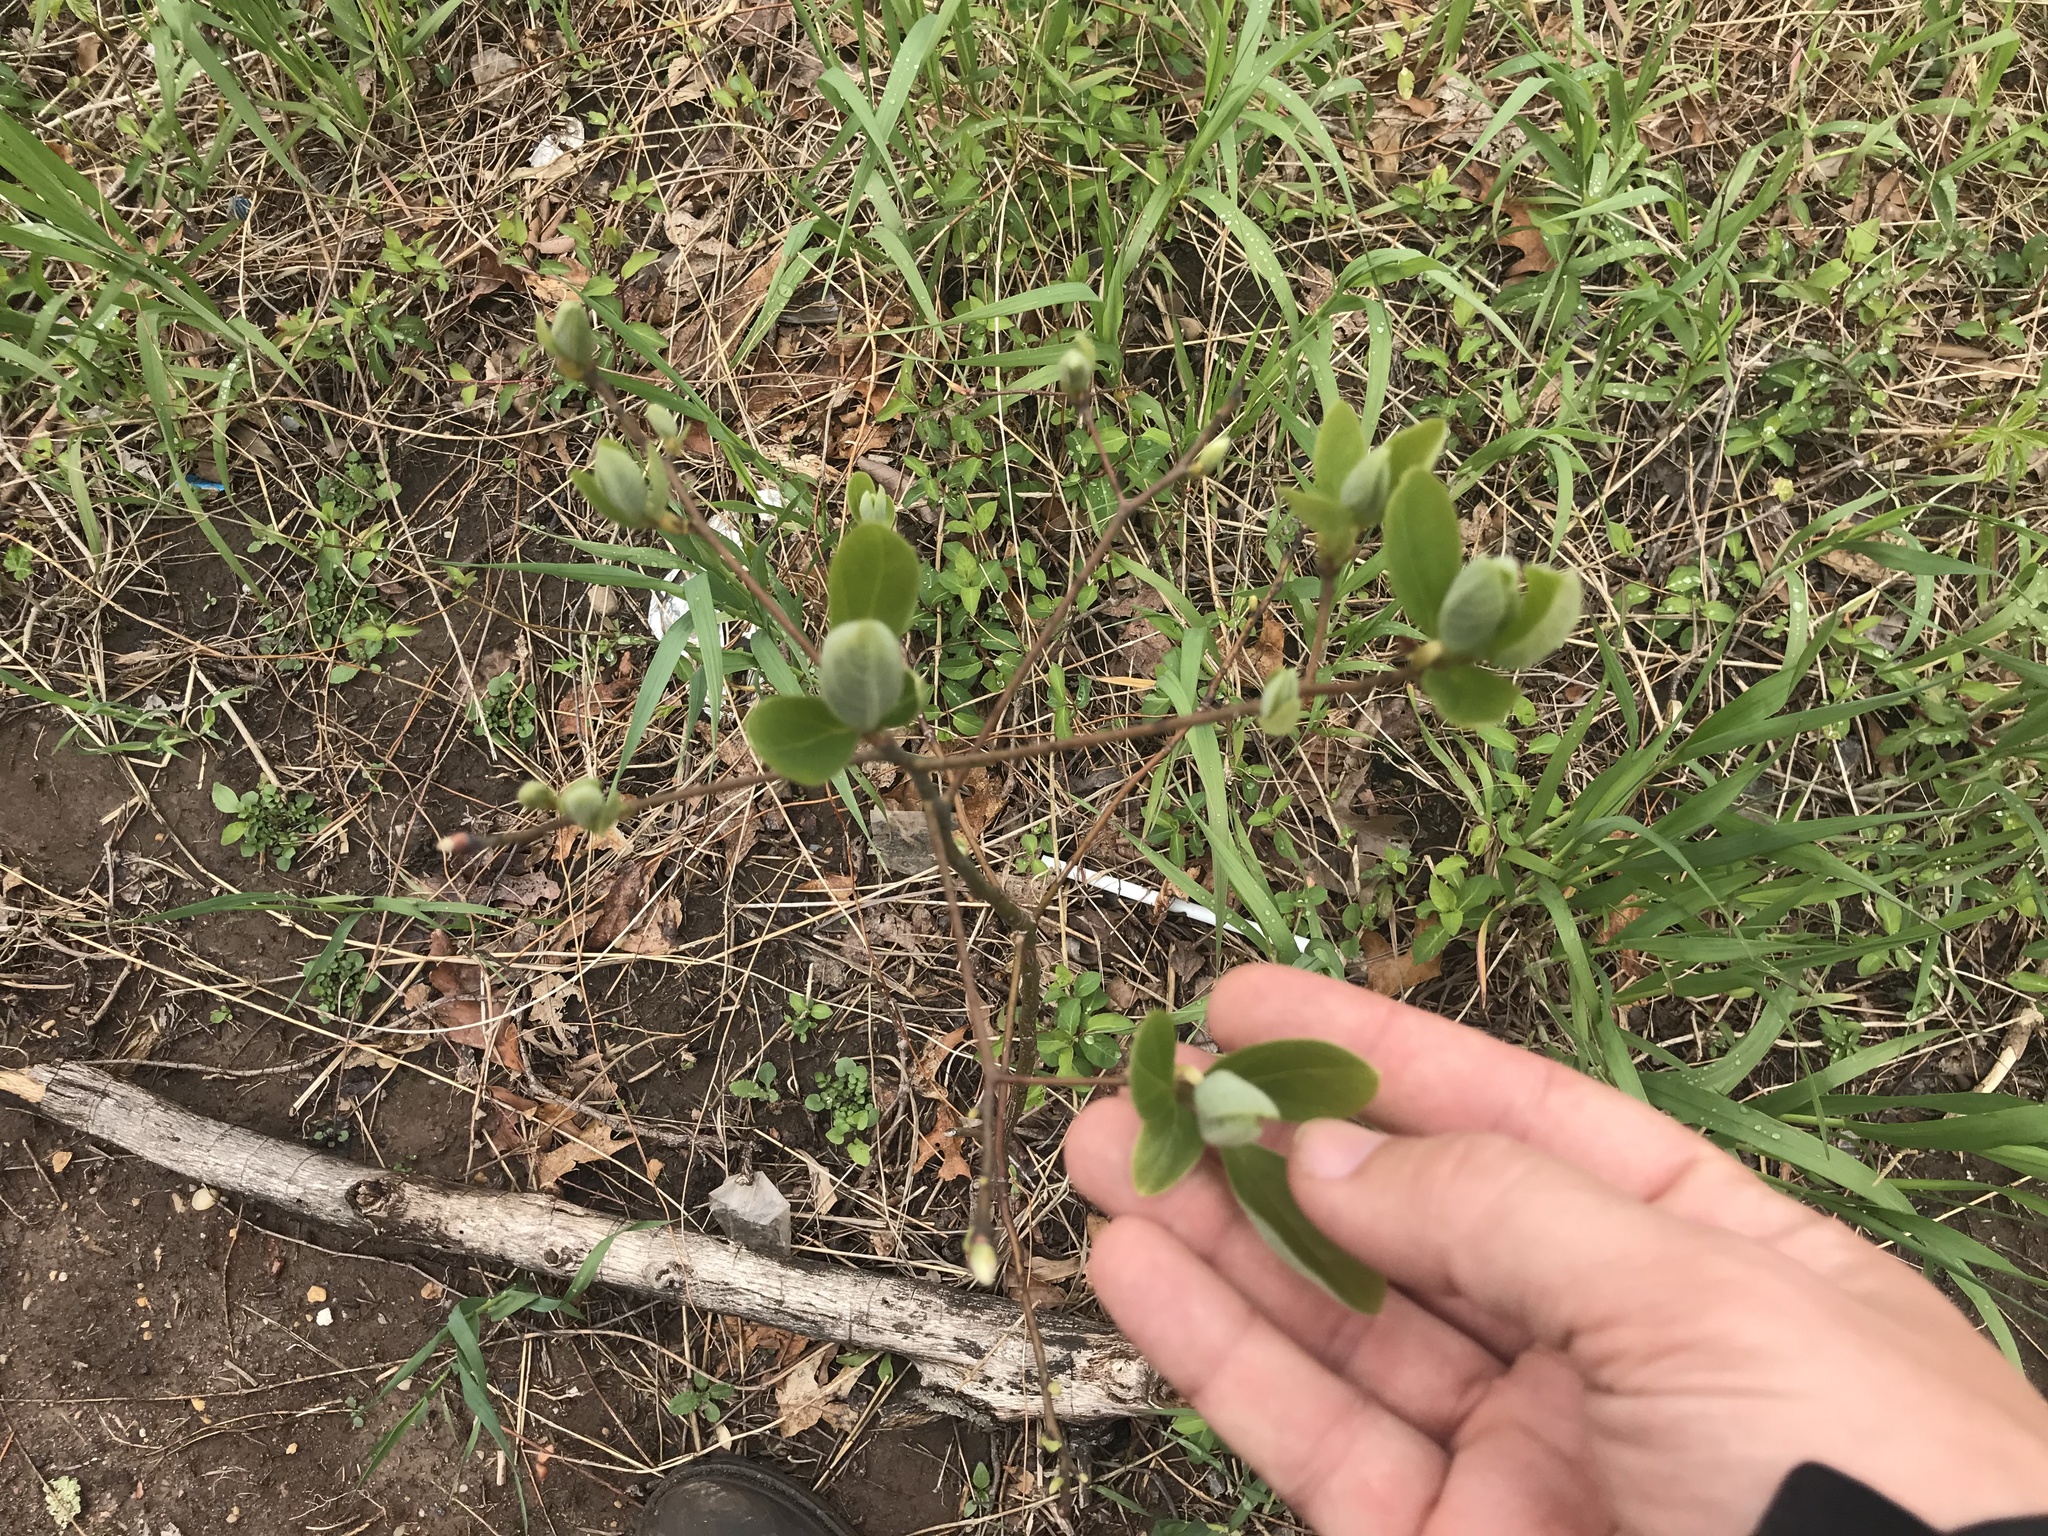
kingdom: Plantae
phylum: Tracheophyta
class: Magnoliopsida
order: Laurales
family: Lauraceae
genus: Sassafras
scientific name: Sassafras albidum
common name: Sassafras
